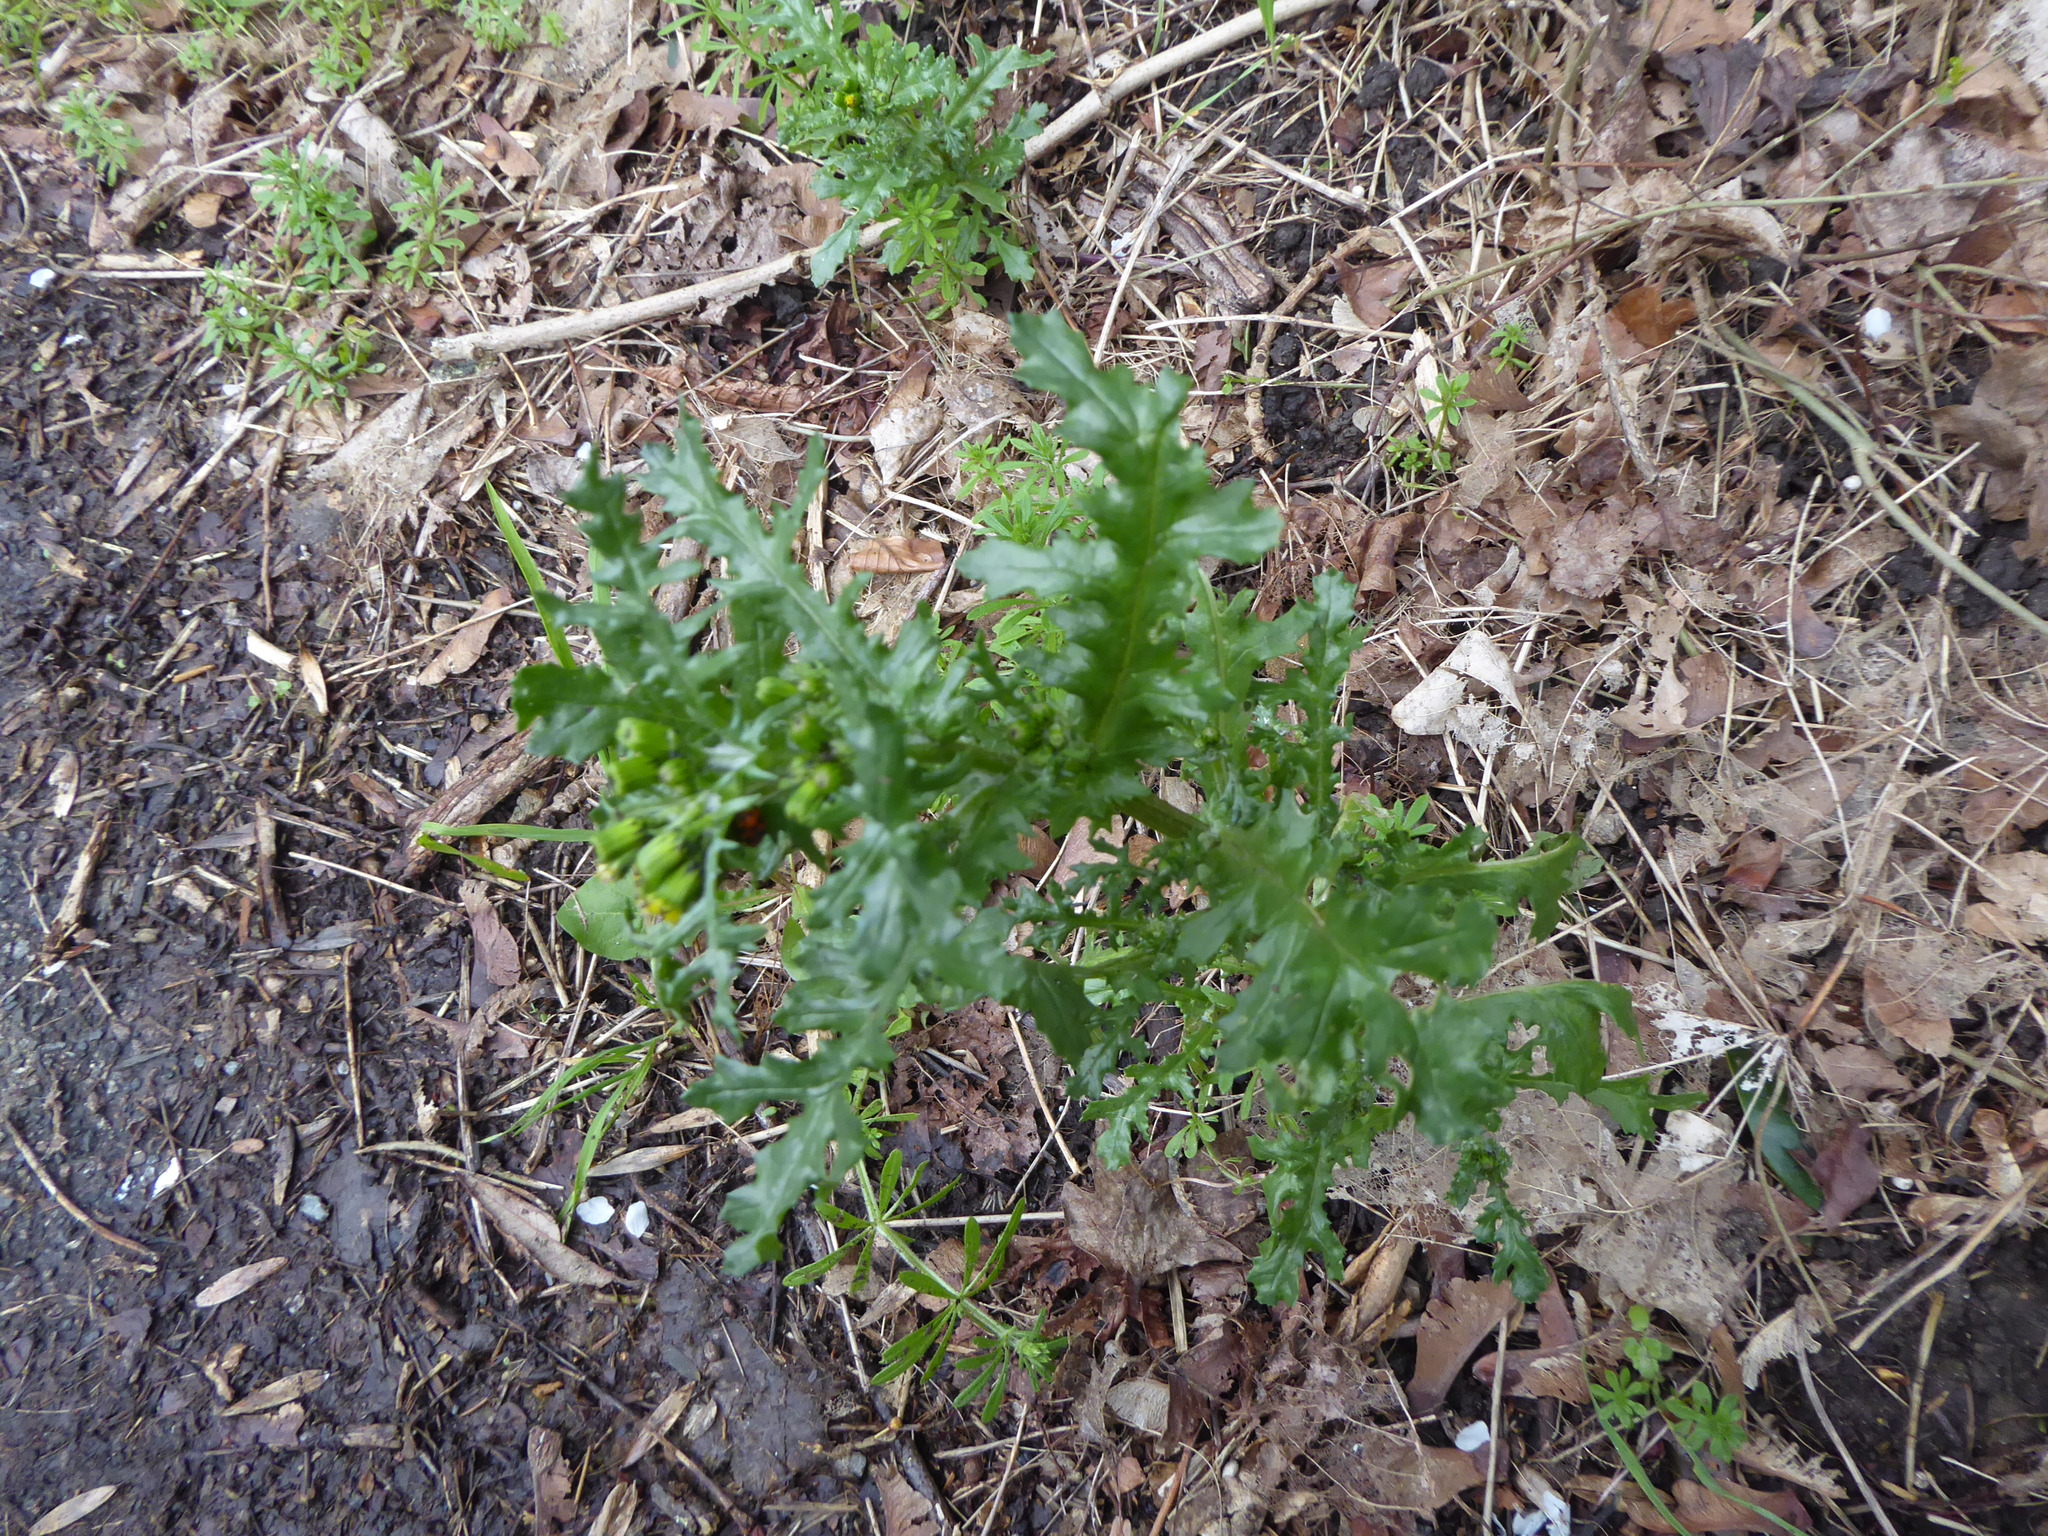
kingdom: Plantae
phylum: Tracheophyta
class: Magnoliopsida
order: Asterales
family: Asteraceae
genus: Senecio
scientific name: Senecio vulgaris
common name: Old-man-in-the-spring
